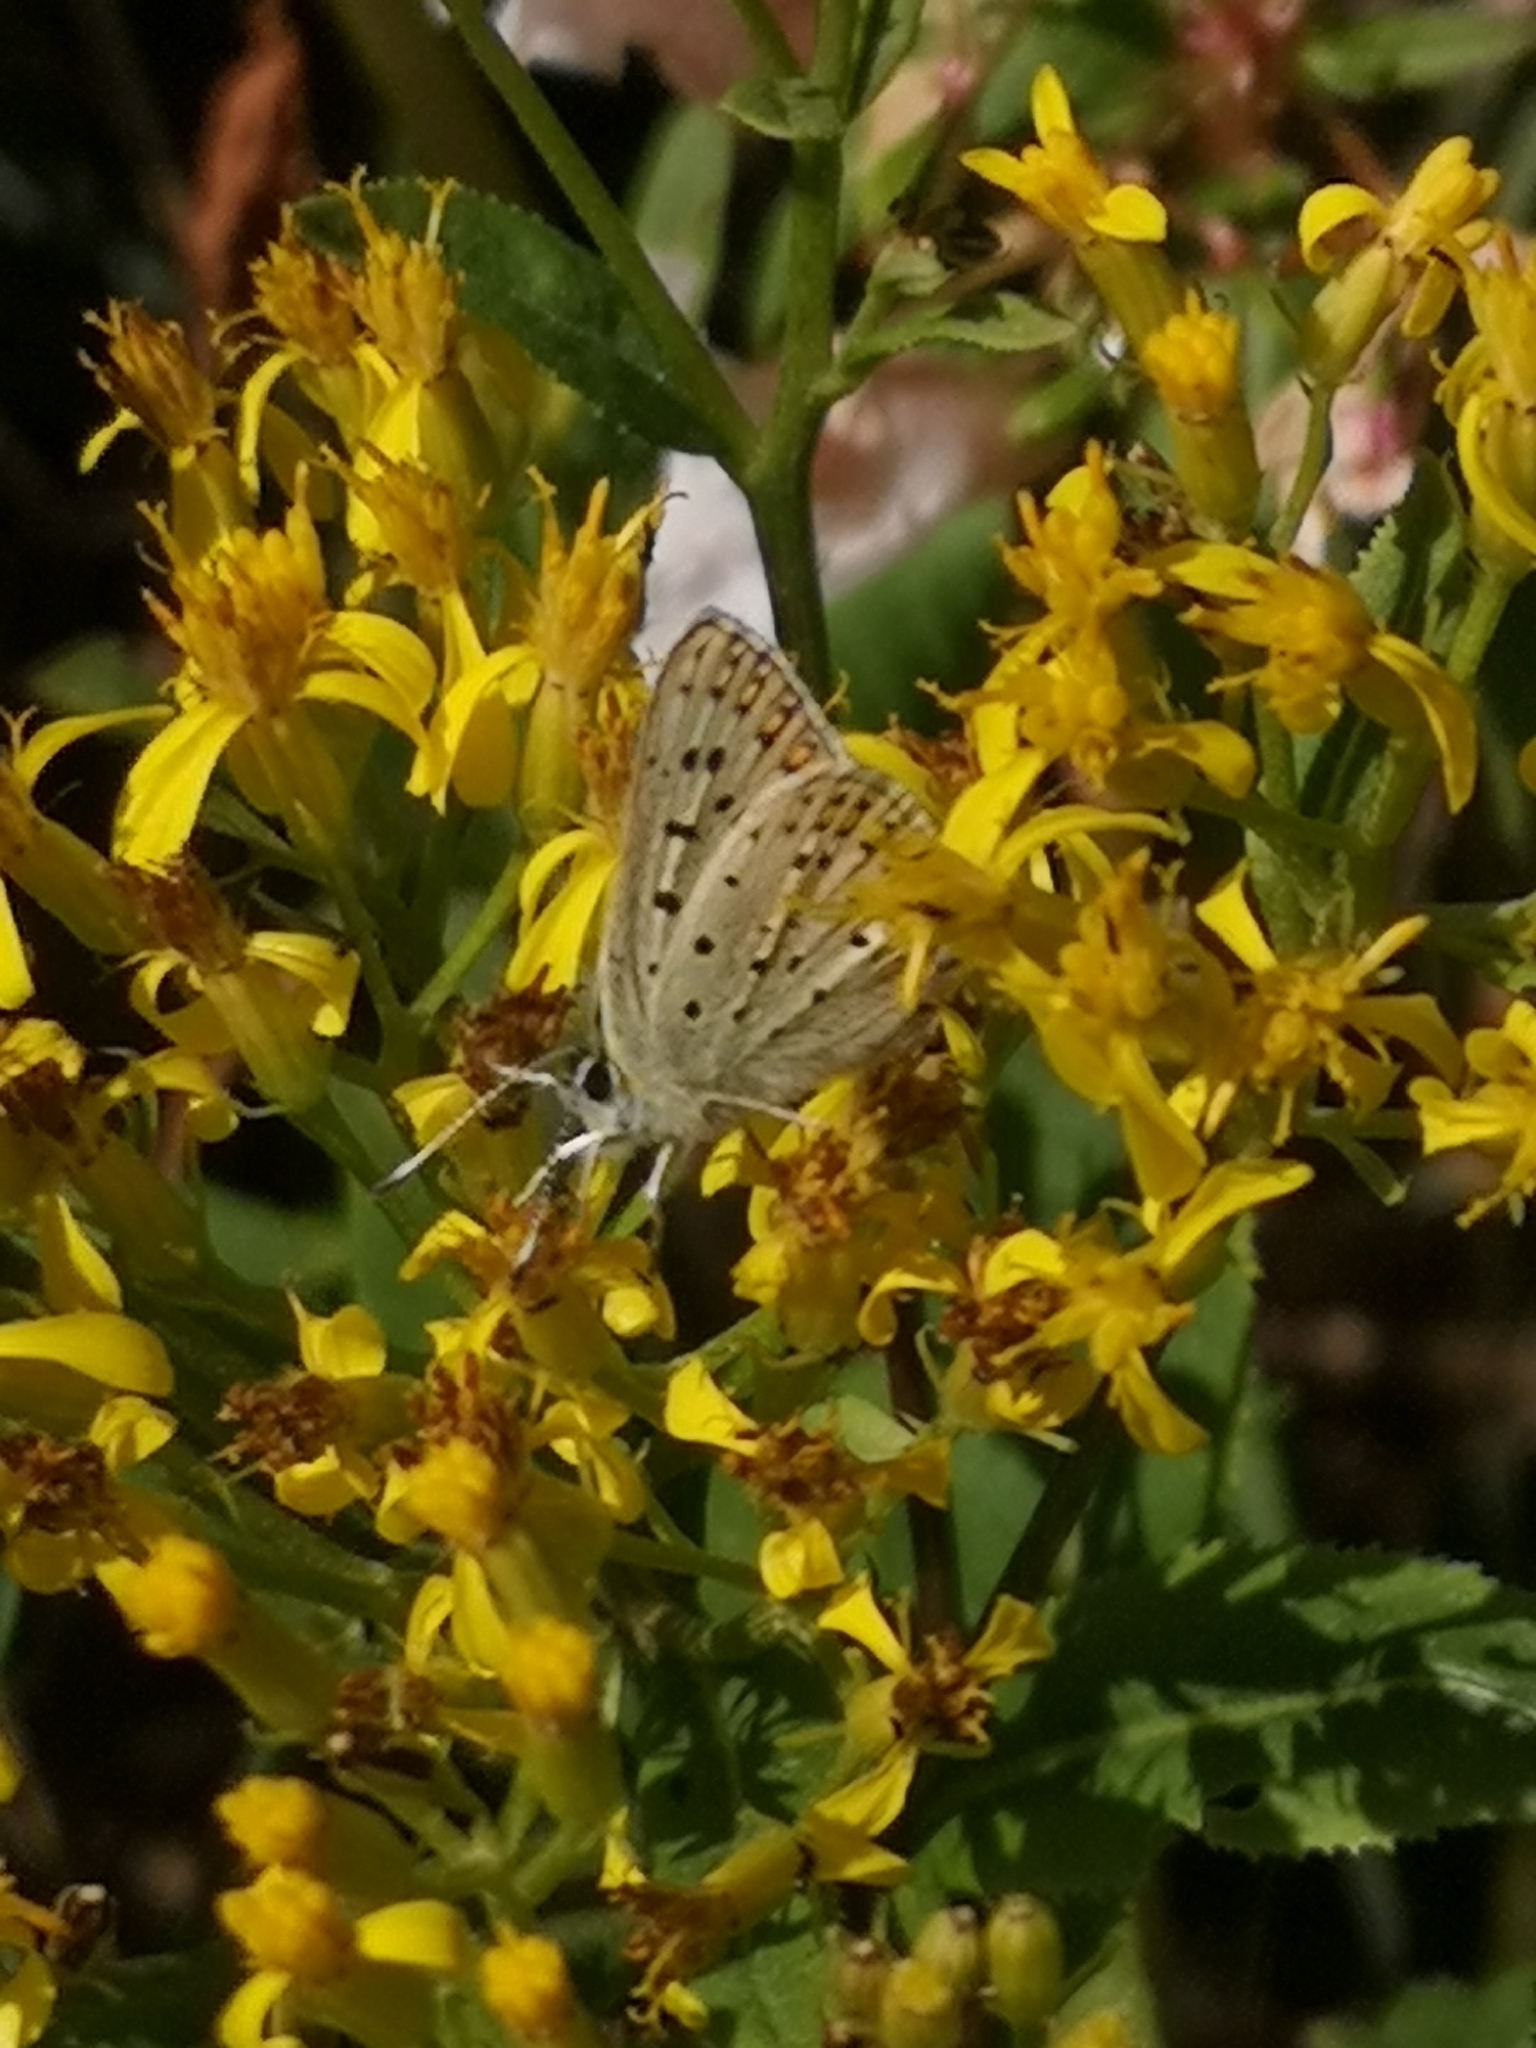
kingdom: Animalia
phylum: Arthropoda
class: Insecta
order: Lepidoptera
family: Lycaenidae
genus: Loweia
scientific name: Loweia tityrus
